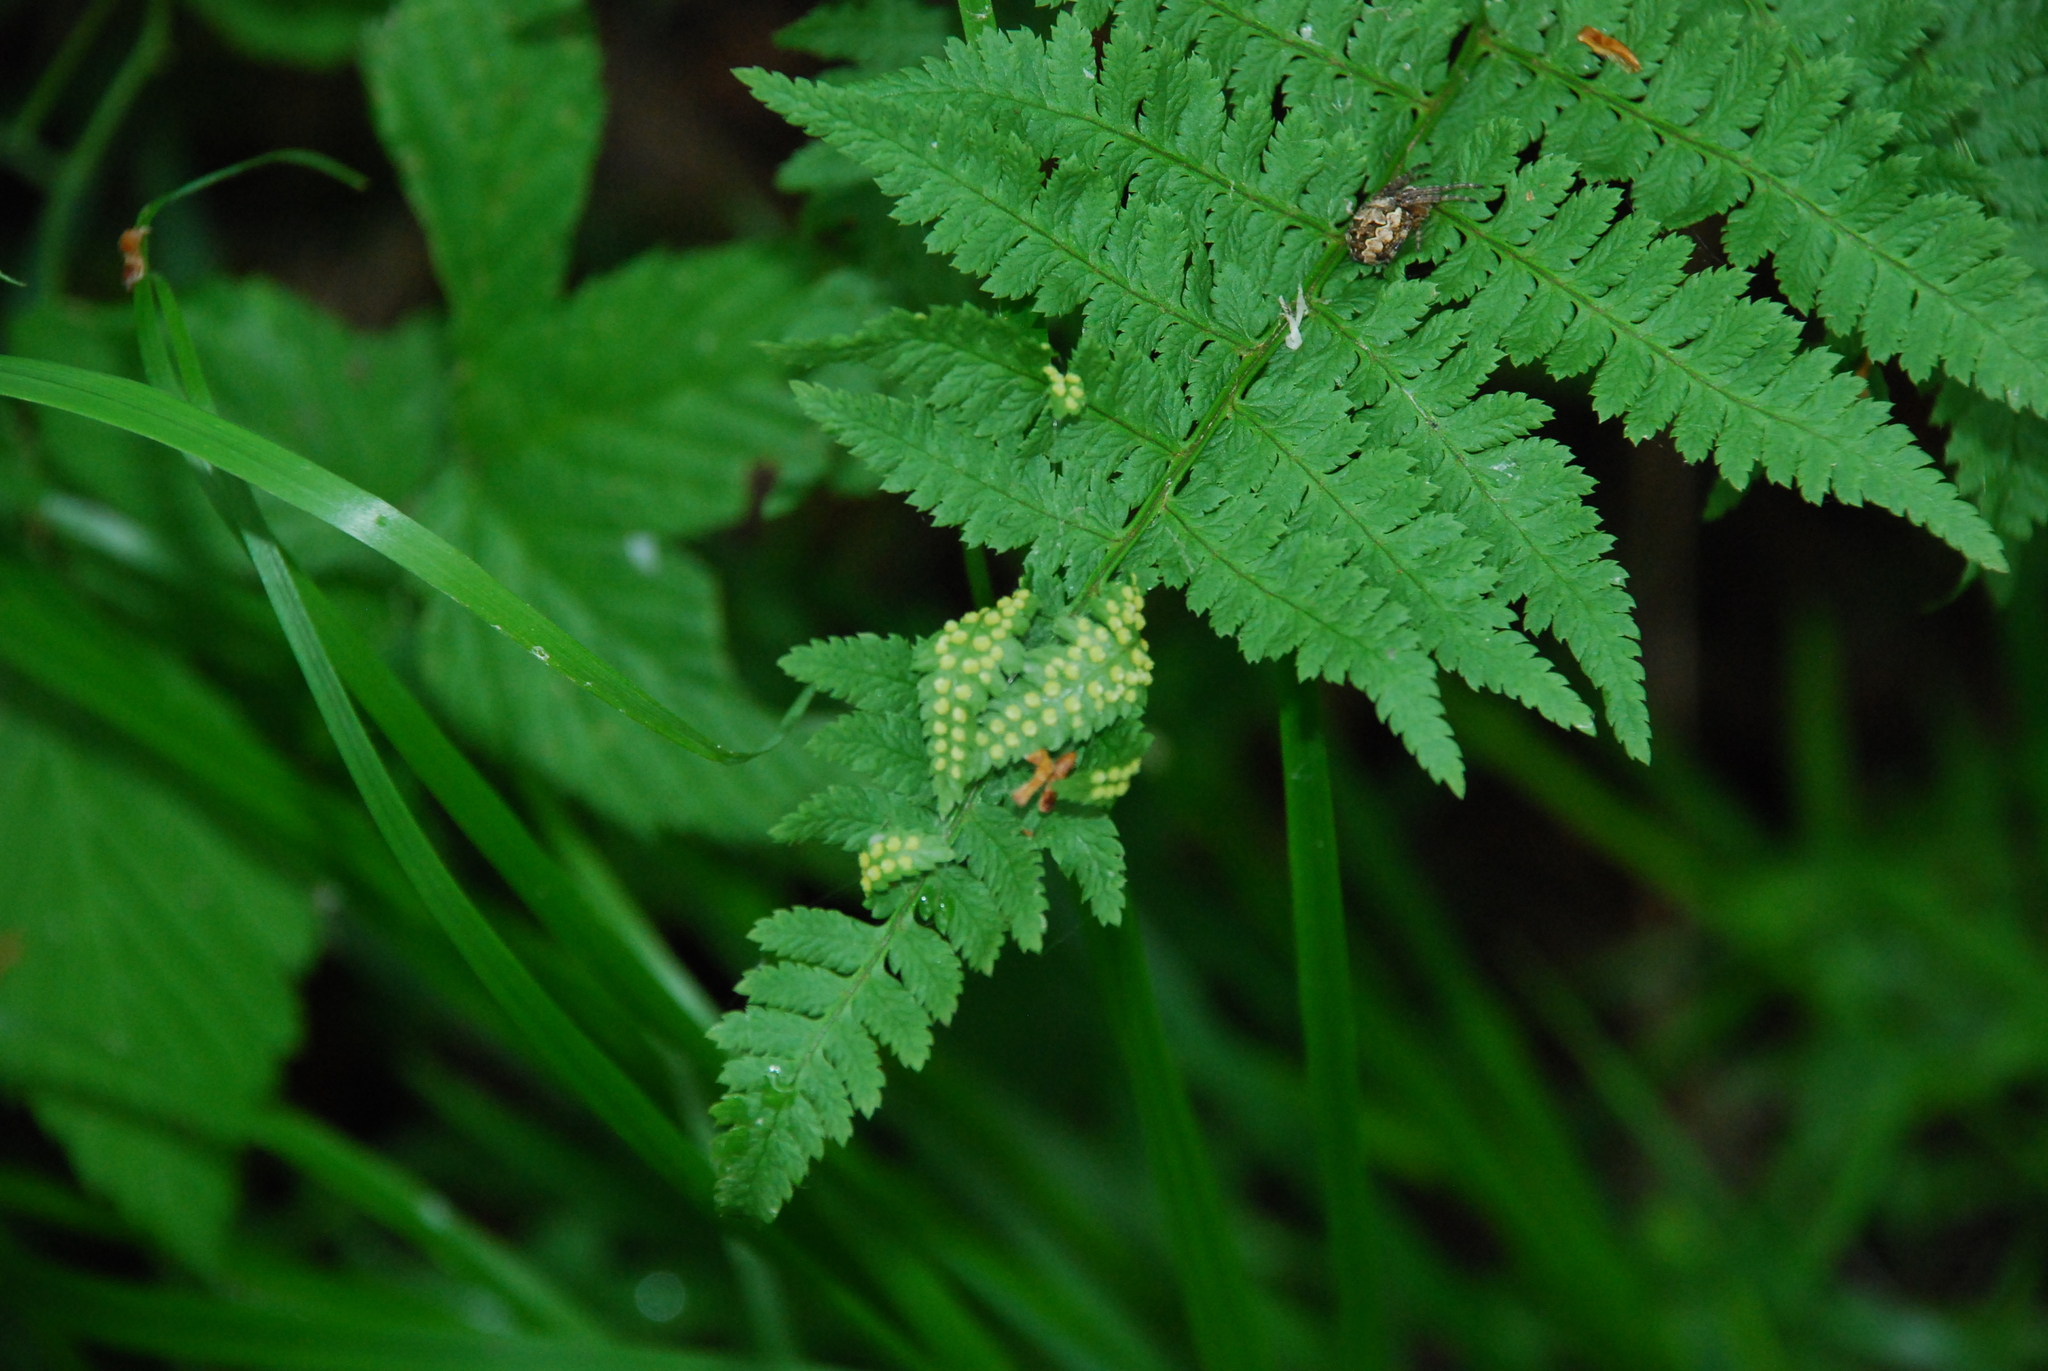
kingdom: Plantae
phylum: Tracheophyta
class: Polypodiopsida
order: Polypodiales
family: Dryopteridaceae
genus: Dryopteris
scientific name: Dryopteris carthusiana
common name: Narrow buckler-fern
